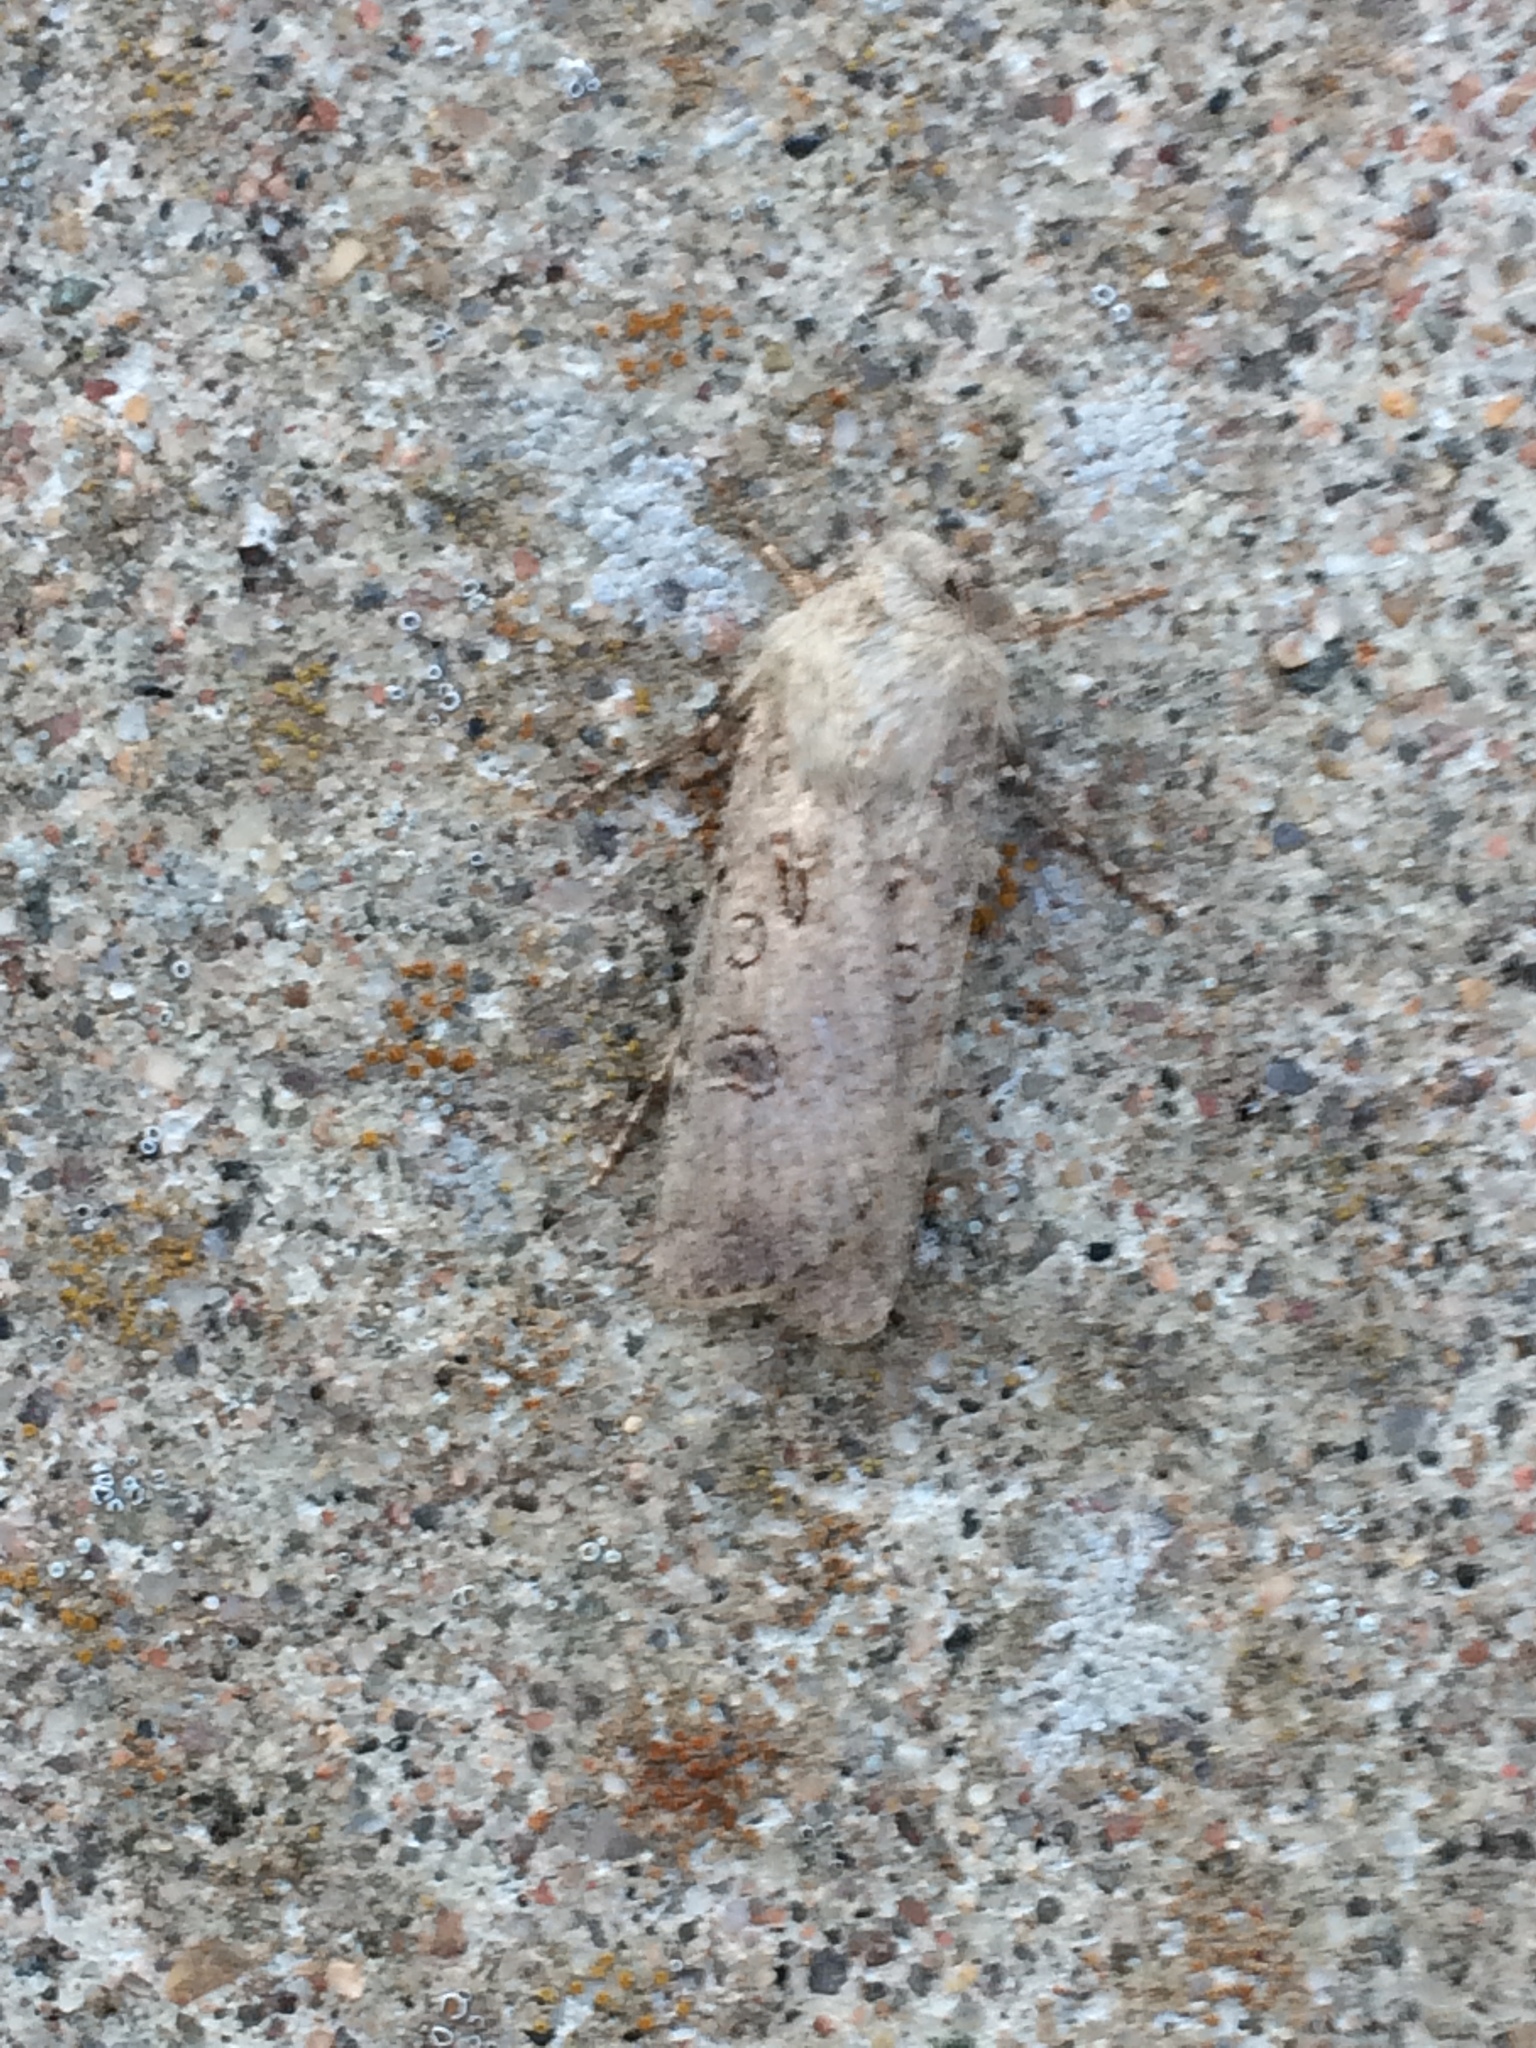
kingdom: Animalia
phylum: Arthropoda
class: Insecta
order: Lepidoptera
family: Noctuidae
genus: Agrotis
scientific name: Agrotis segetum
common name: Turnip moth
